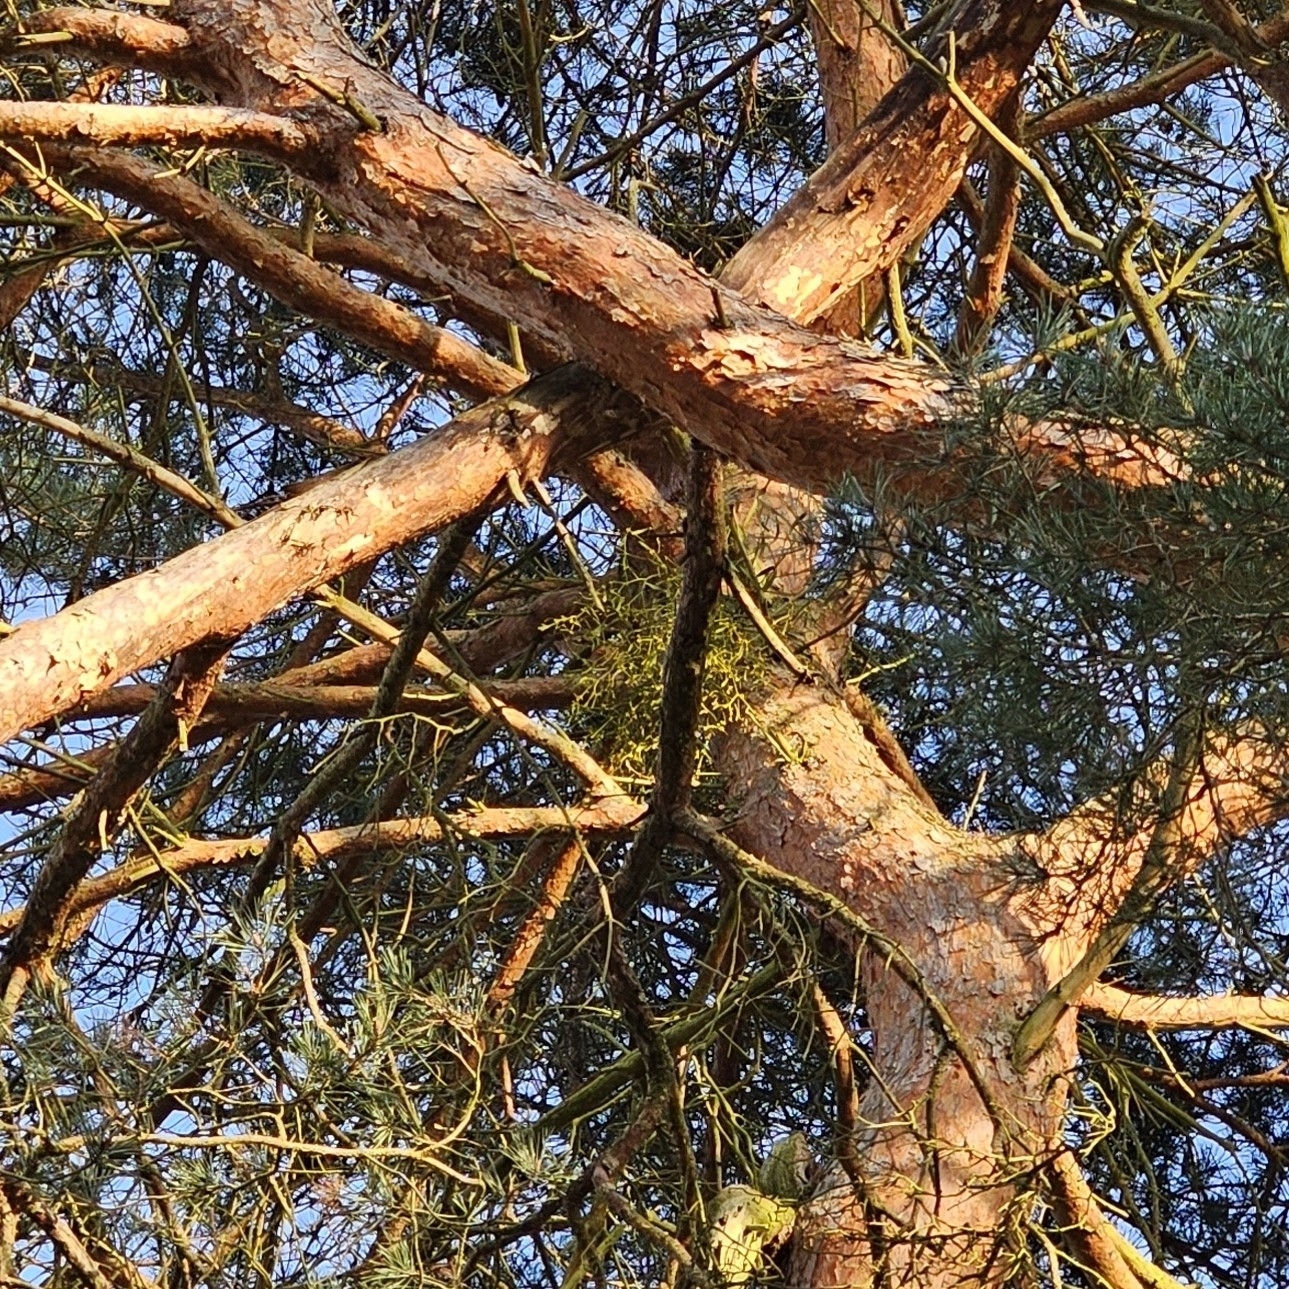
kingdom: Plantae
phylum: Tracheophyta
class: Magnoliopsida
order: Santalales
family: Viscaceae
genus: Viscum
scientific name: Viscum laxum
